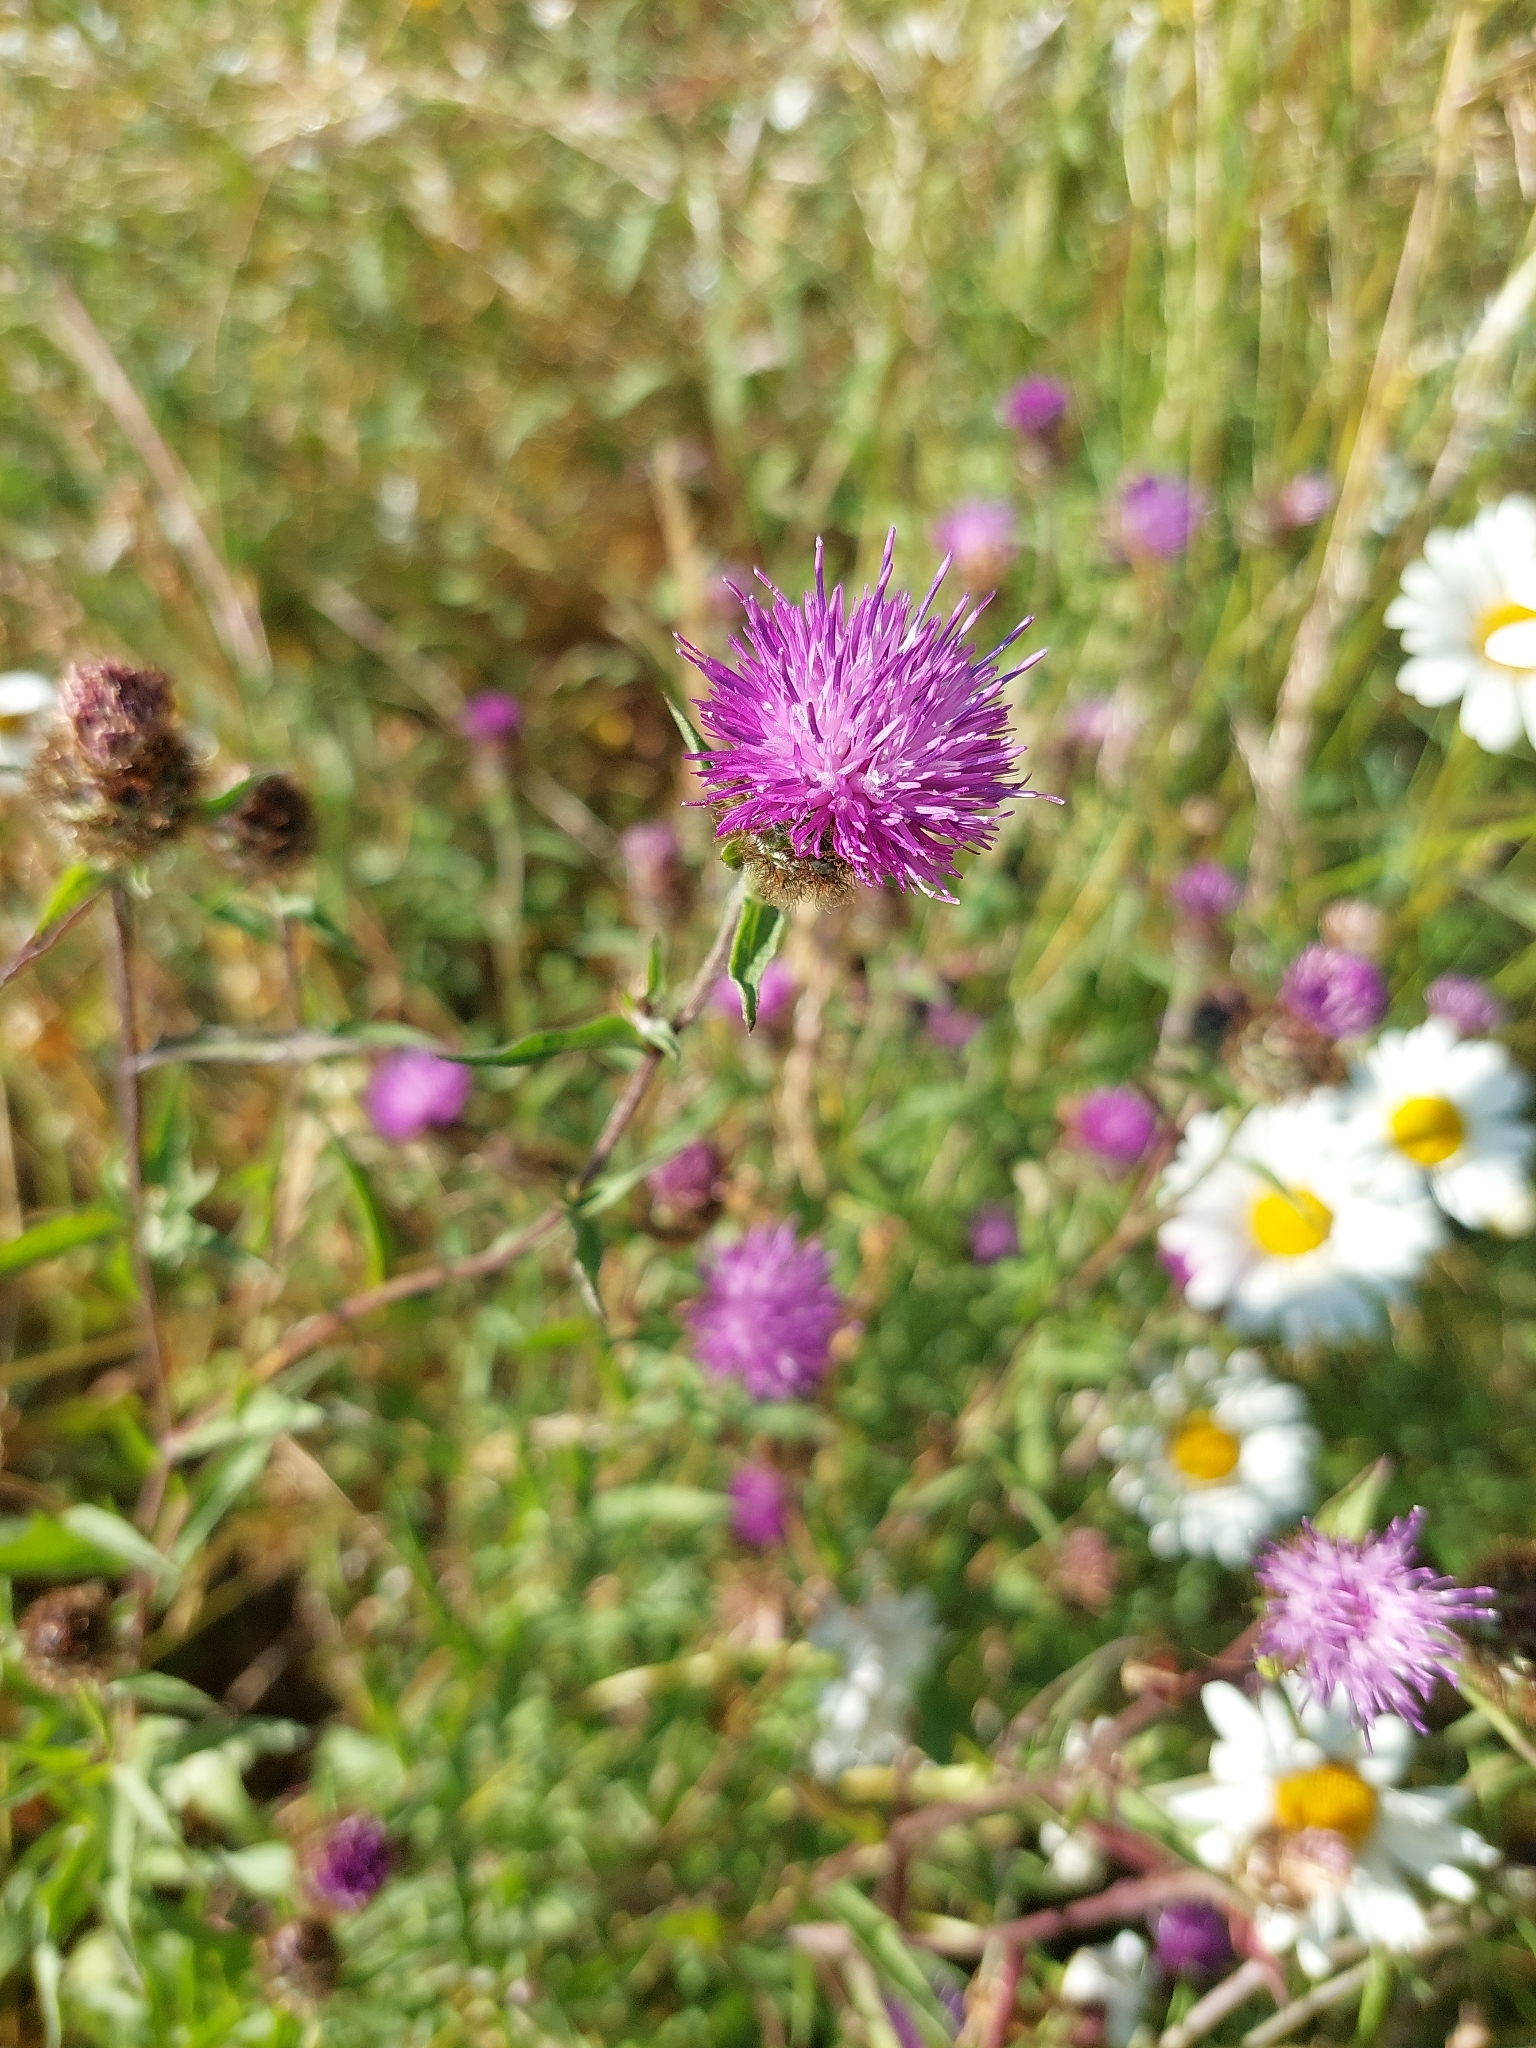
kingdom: Plantae
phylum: Tracheophyta
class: Magnoliopsida
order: Asterales
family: Asteraceae
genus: Centaurea
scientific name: Centaurea nigra
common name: Lesser knapweed
